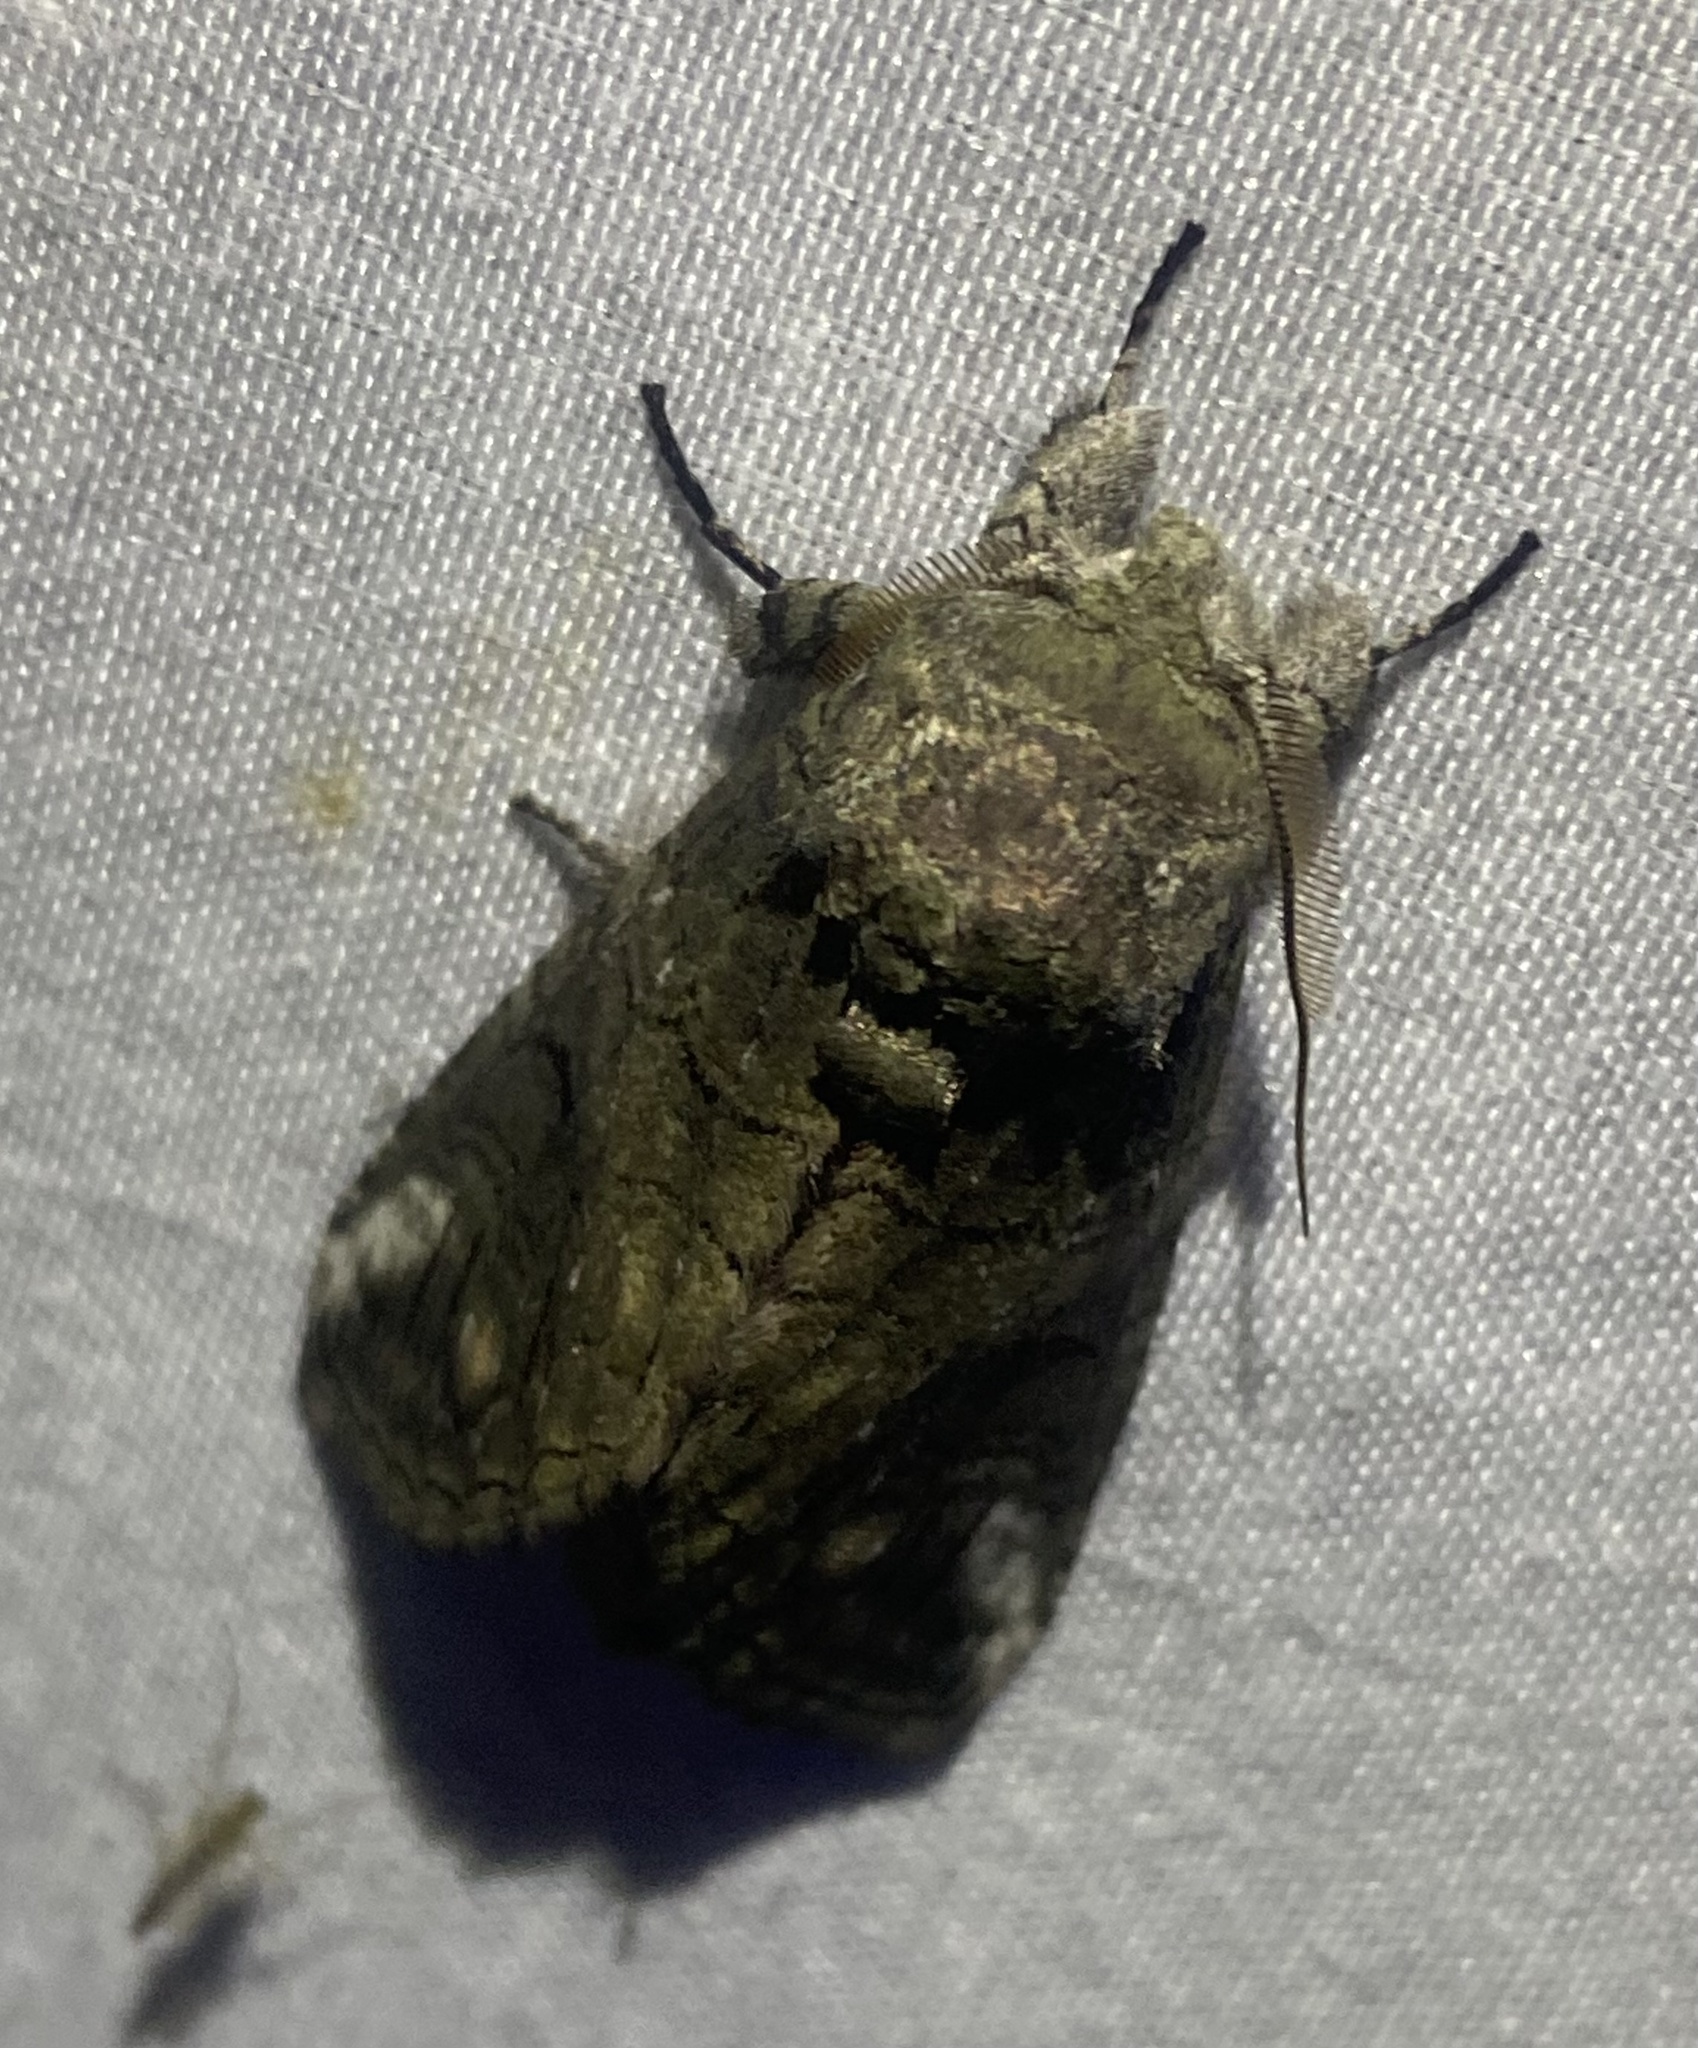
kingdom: Animalia
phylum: Arthropoda
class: Insecta
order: Lepidoptera
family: Notodontidae
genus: Heterocampa
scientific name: Heterocampa obliqua
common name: Oblique heterocampa
